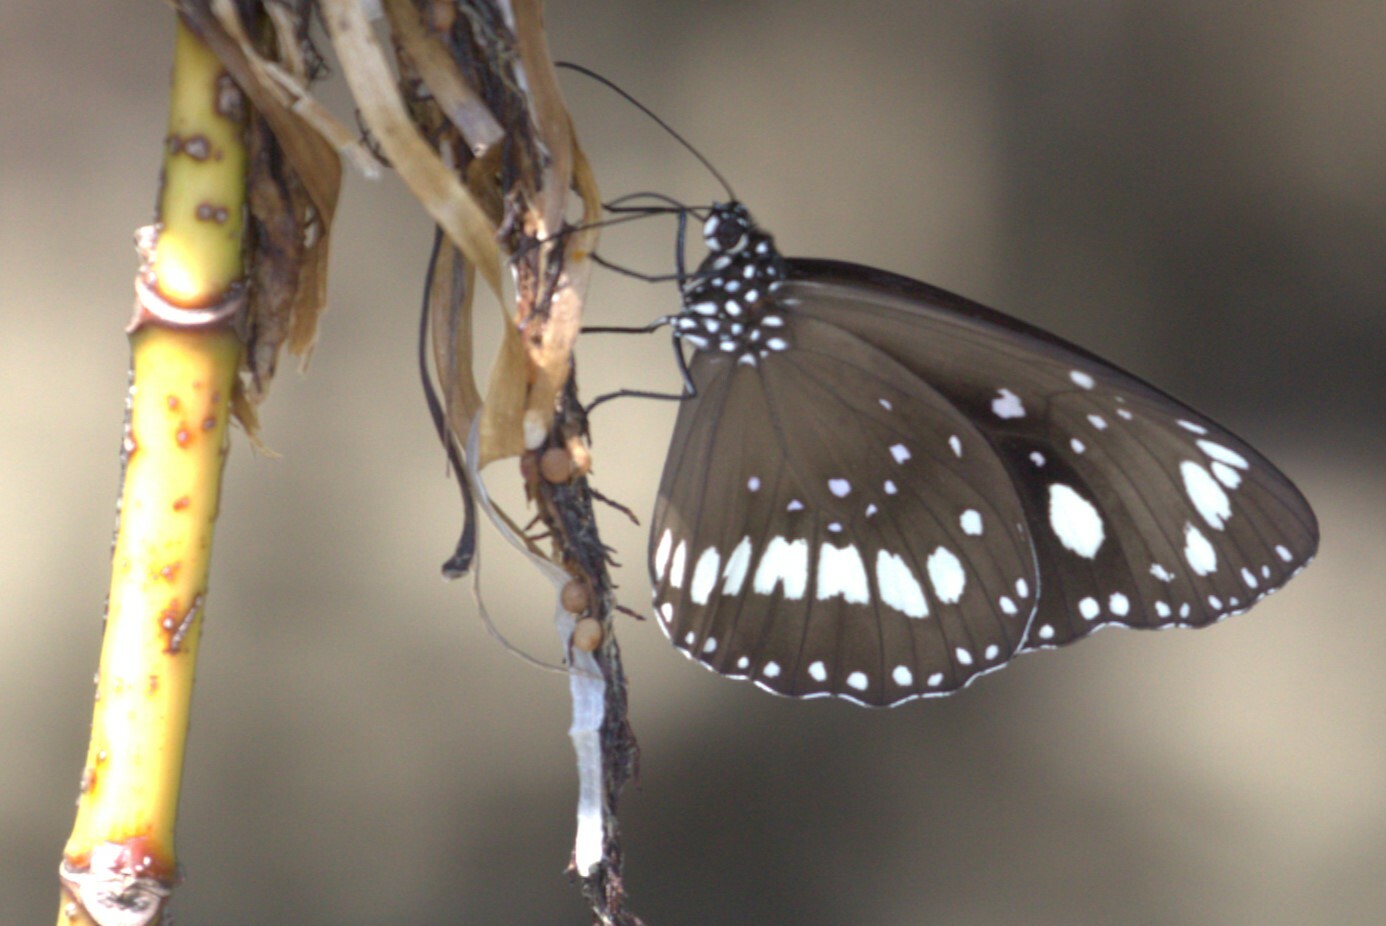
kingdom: Animalia
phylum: Arthropoda
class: Insecta
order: Lepidoptera
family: Nymphalidae
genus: Euploea
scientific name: Euploea core
